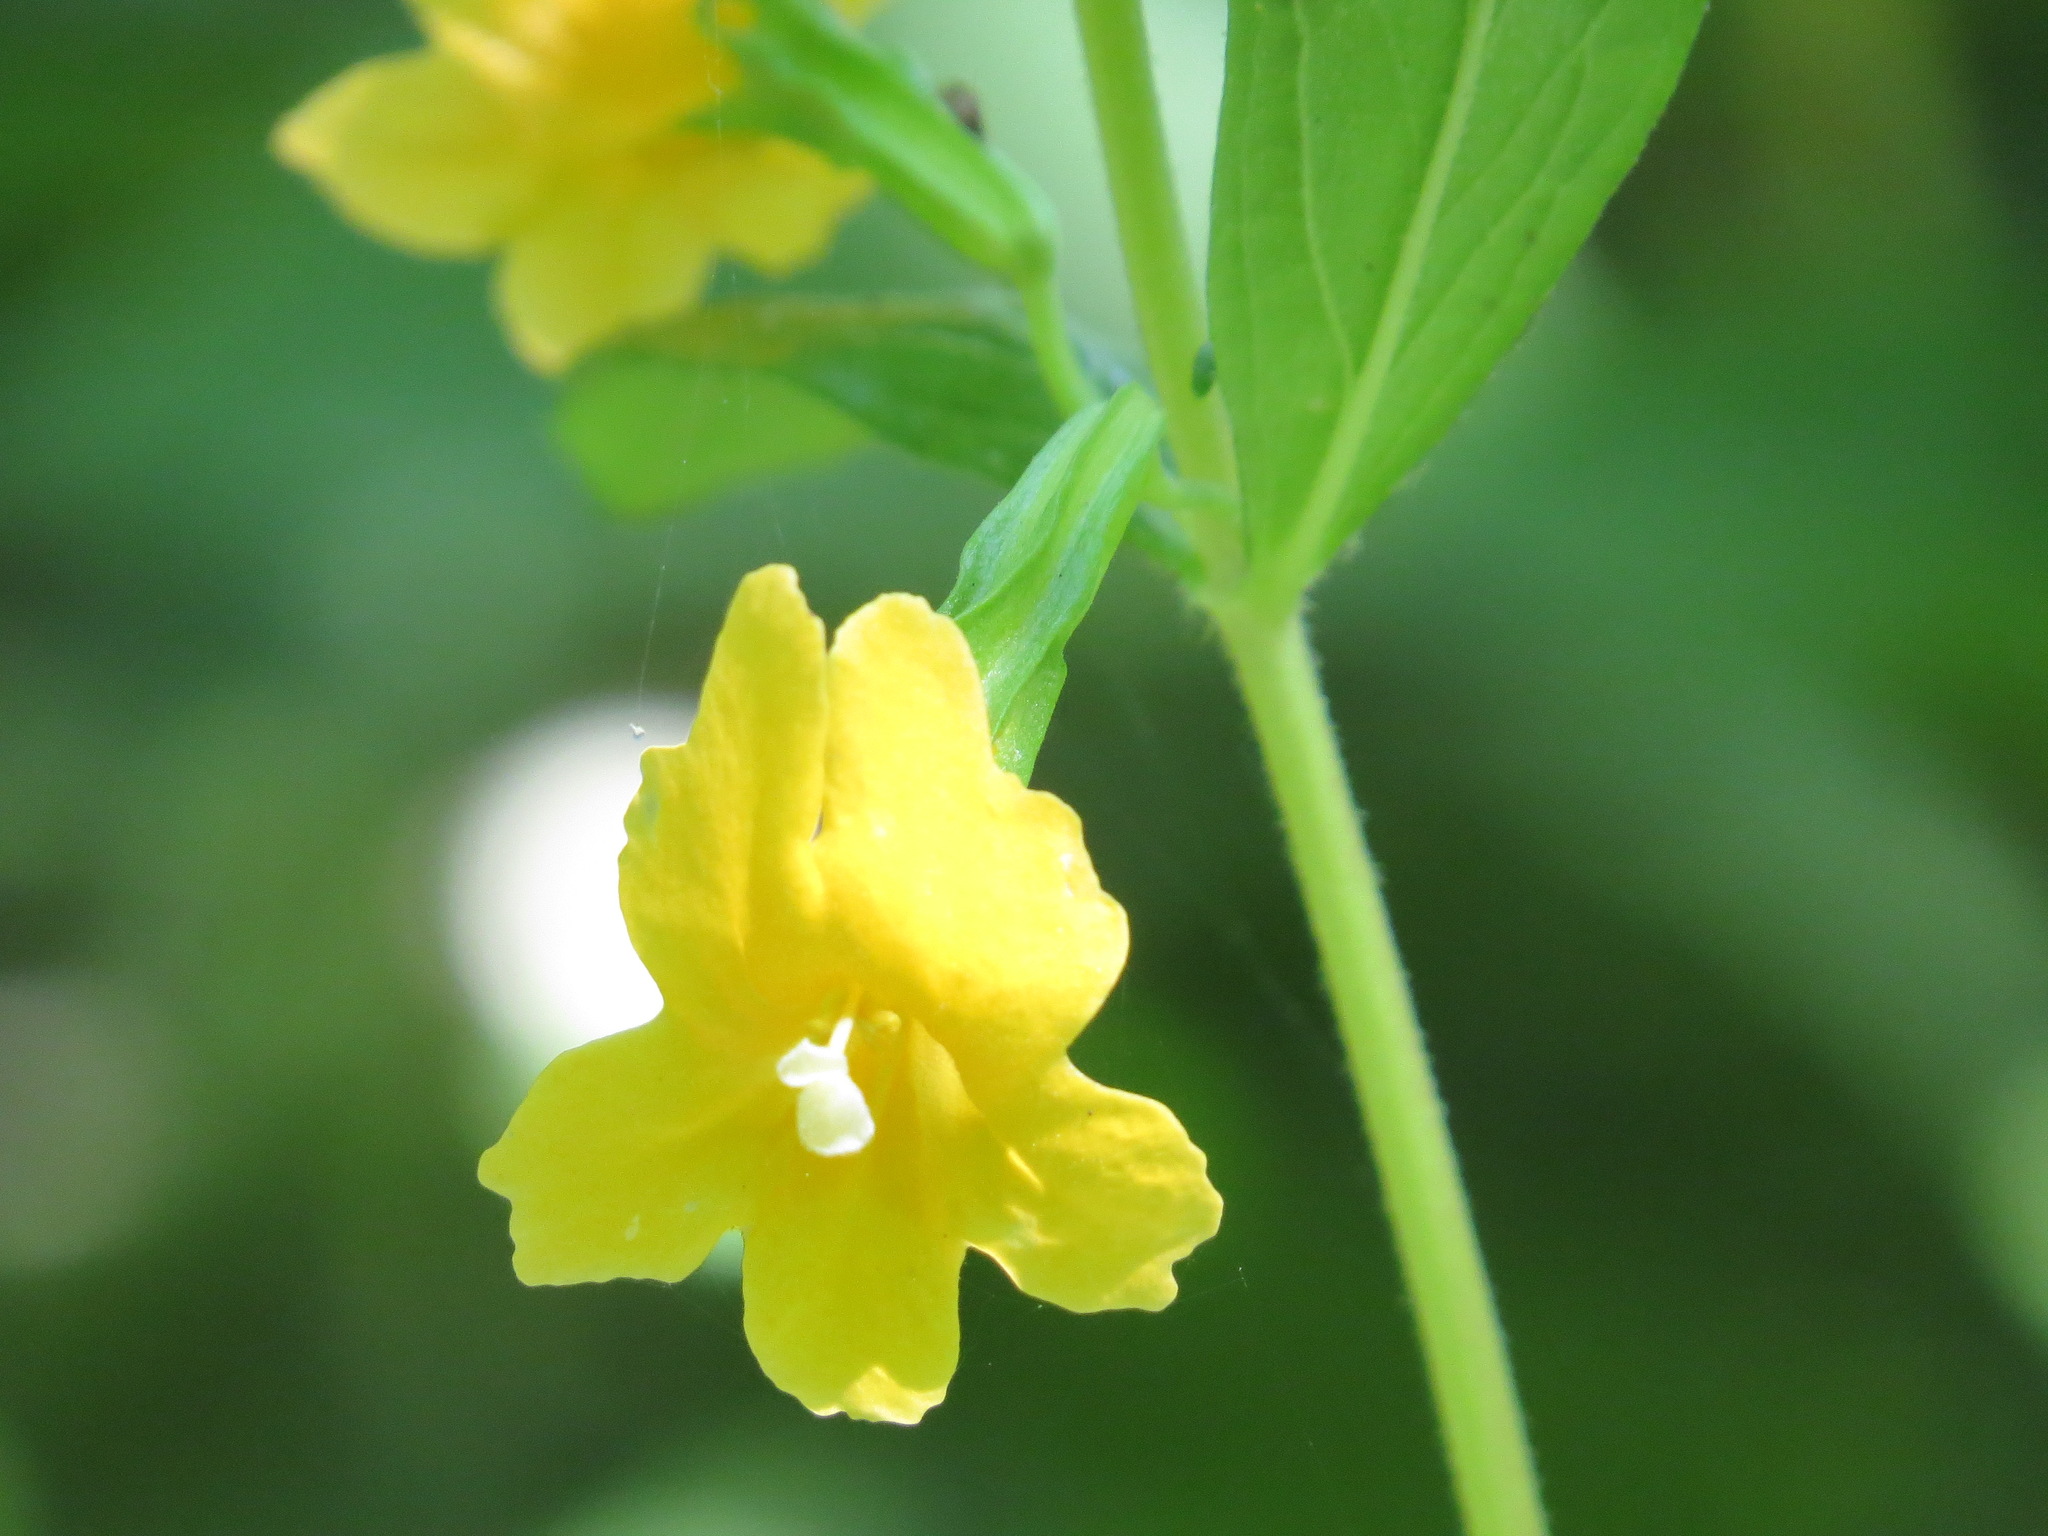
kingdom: Plantae
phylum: Tracheophyta
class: Magnoliopsida
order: Lamiales
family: Phrymaceae
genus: Diplacus
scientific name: Diplacus aurantiacus
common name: Bush monkey-flower
